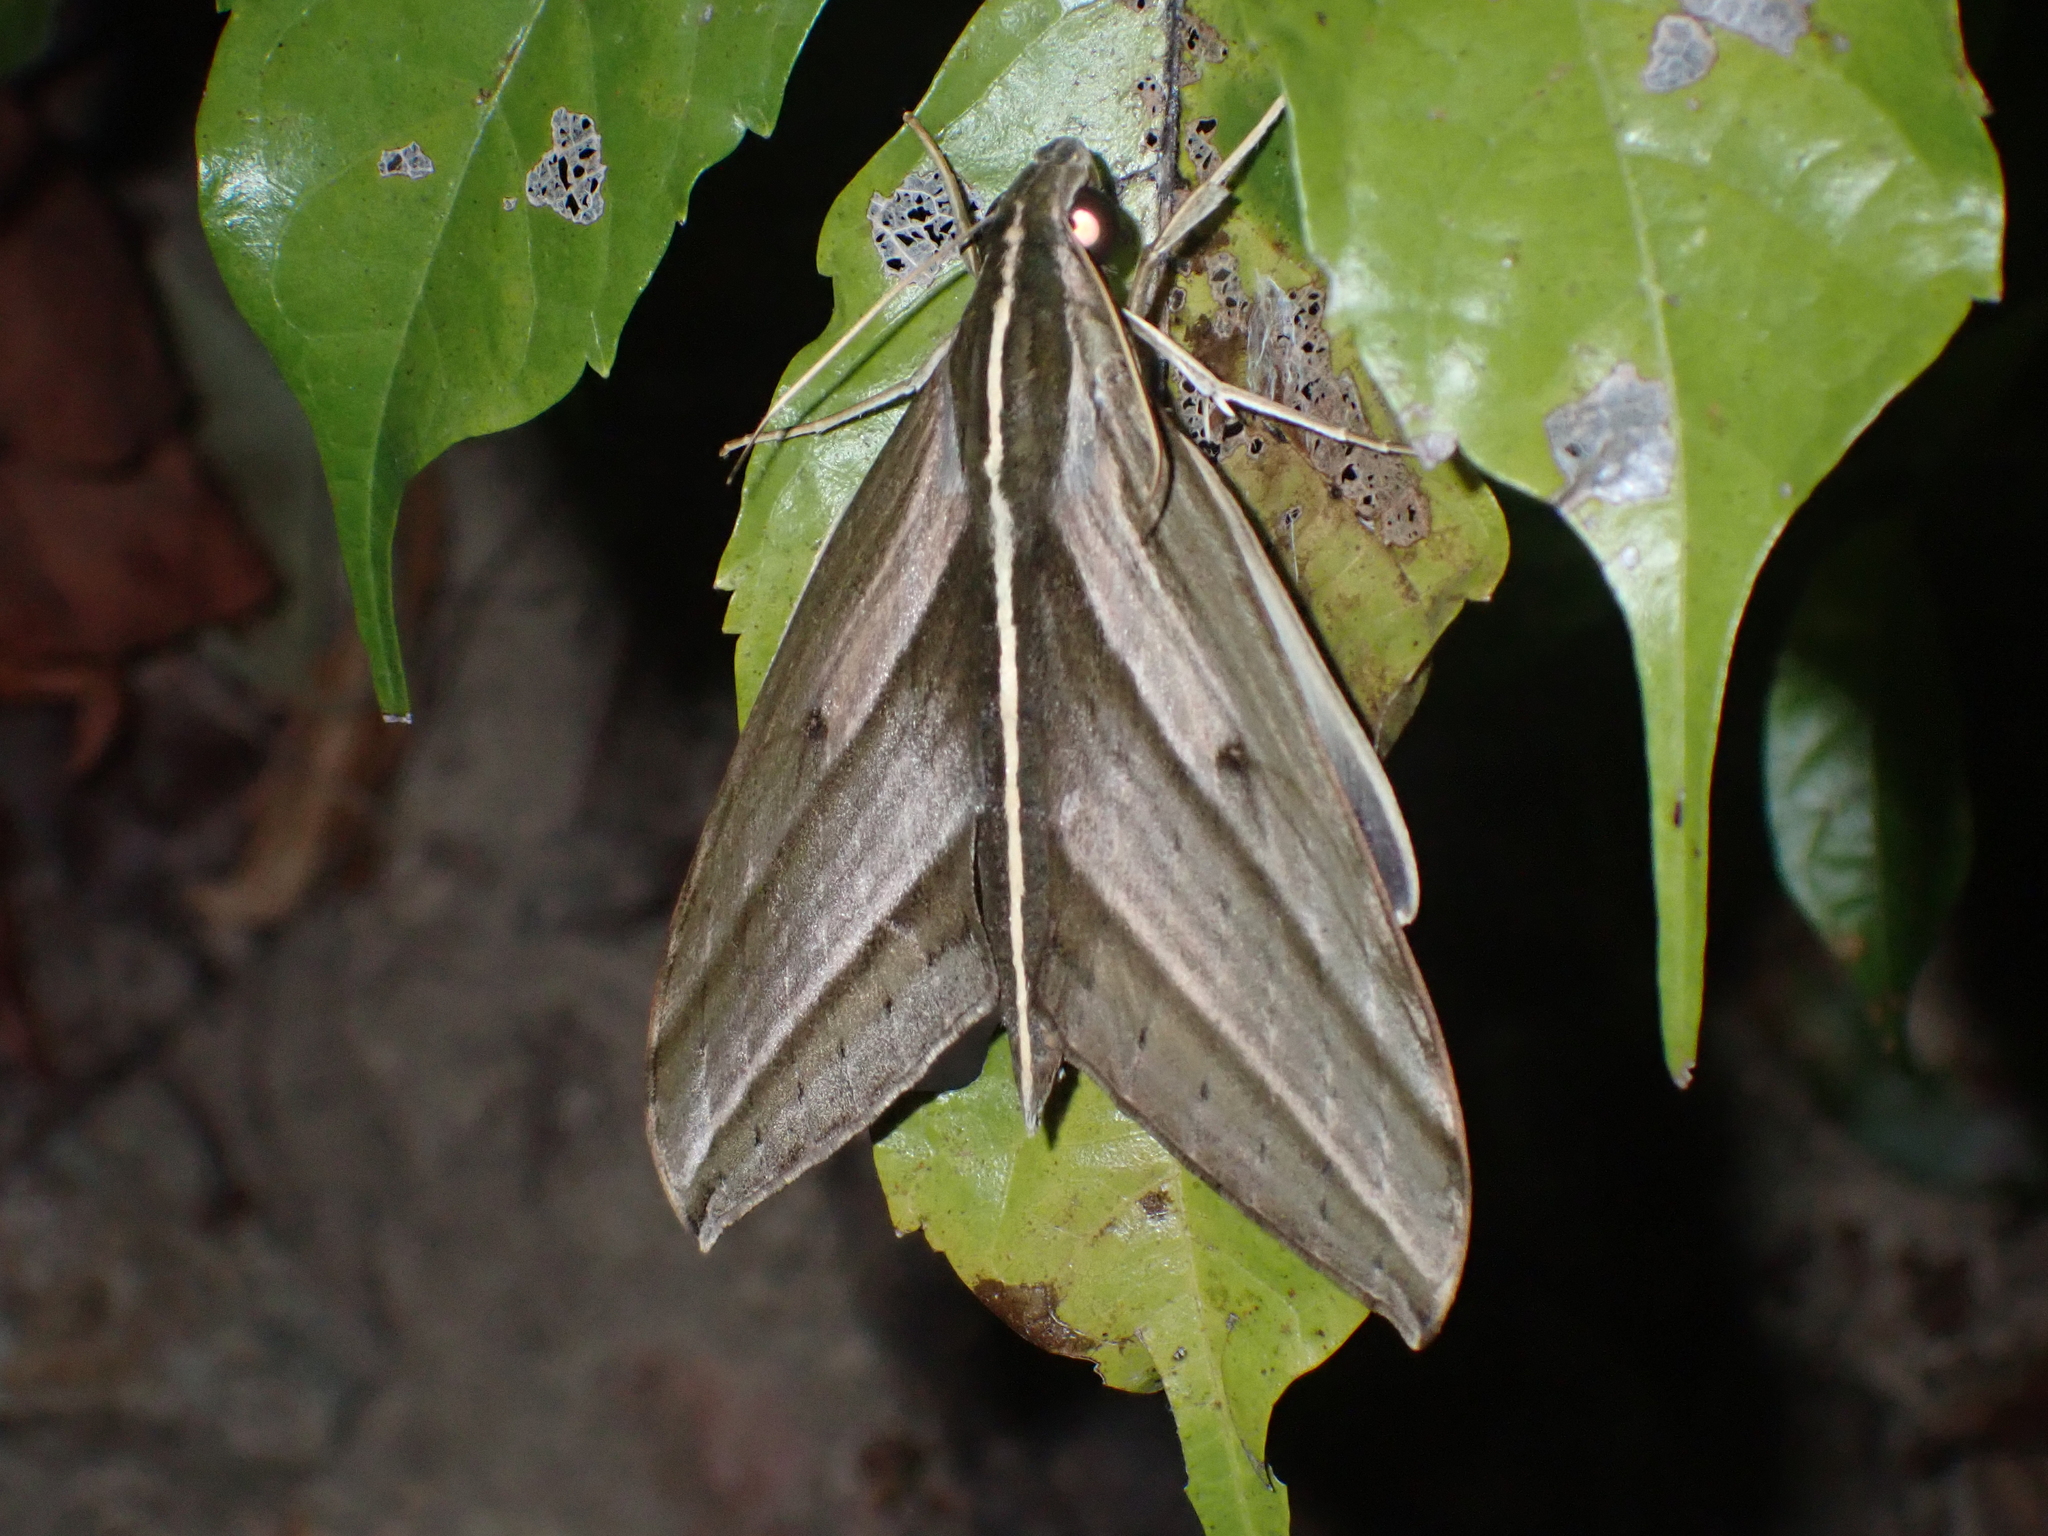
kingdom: Animalia
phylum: Arthropoda
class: Insecta
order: Lepidoptera
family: Sphingidae
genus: Elibia
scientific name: Elibia dolichus
